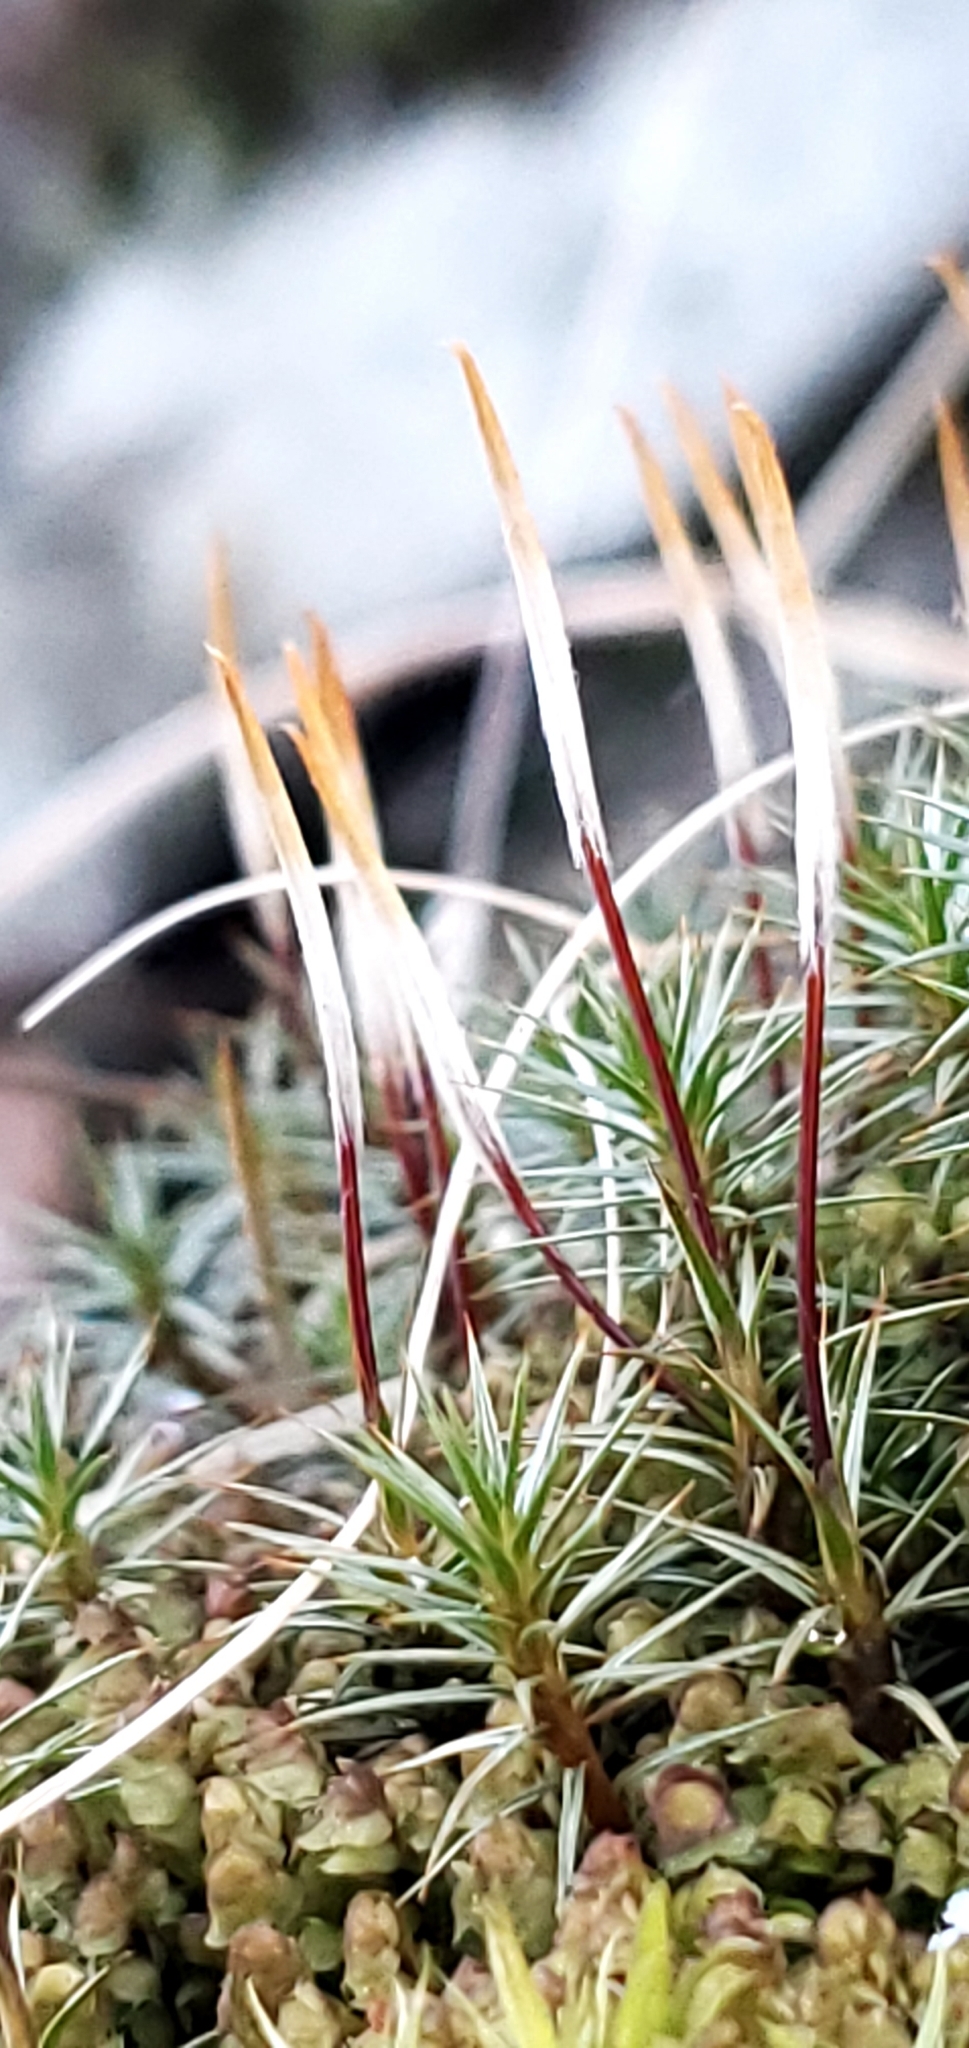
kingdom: Plantae
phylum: Bryophyta
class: Polytrichopsida
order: Polytrichales
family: Polytrichaceae
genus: Polytrichum
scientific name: Polytrichum juniperinum
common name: Juniper haircap moss
